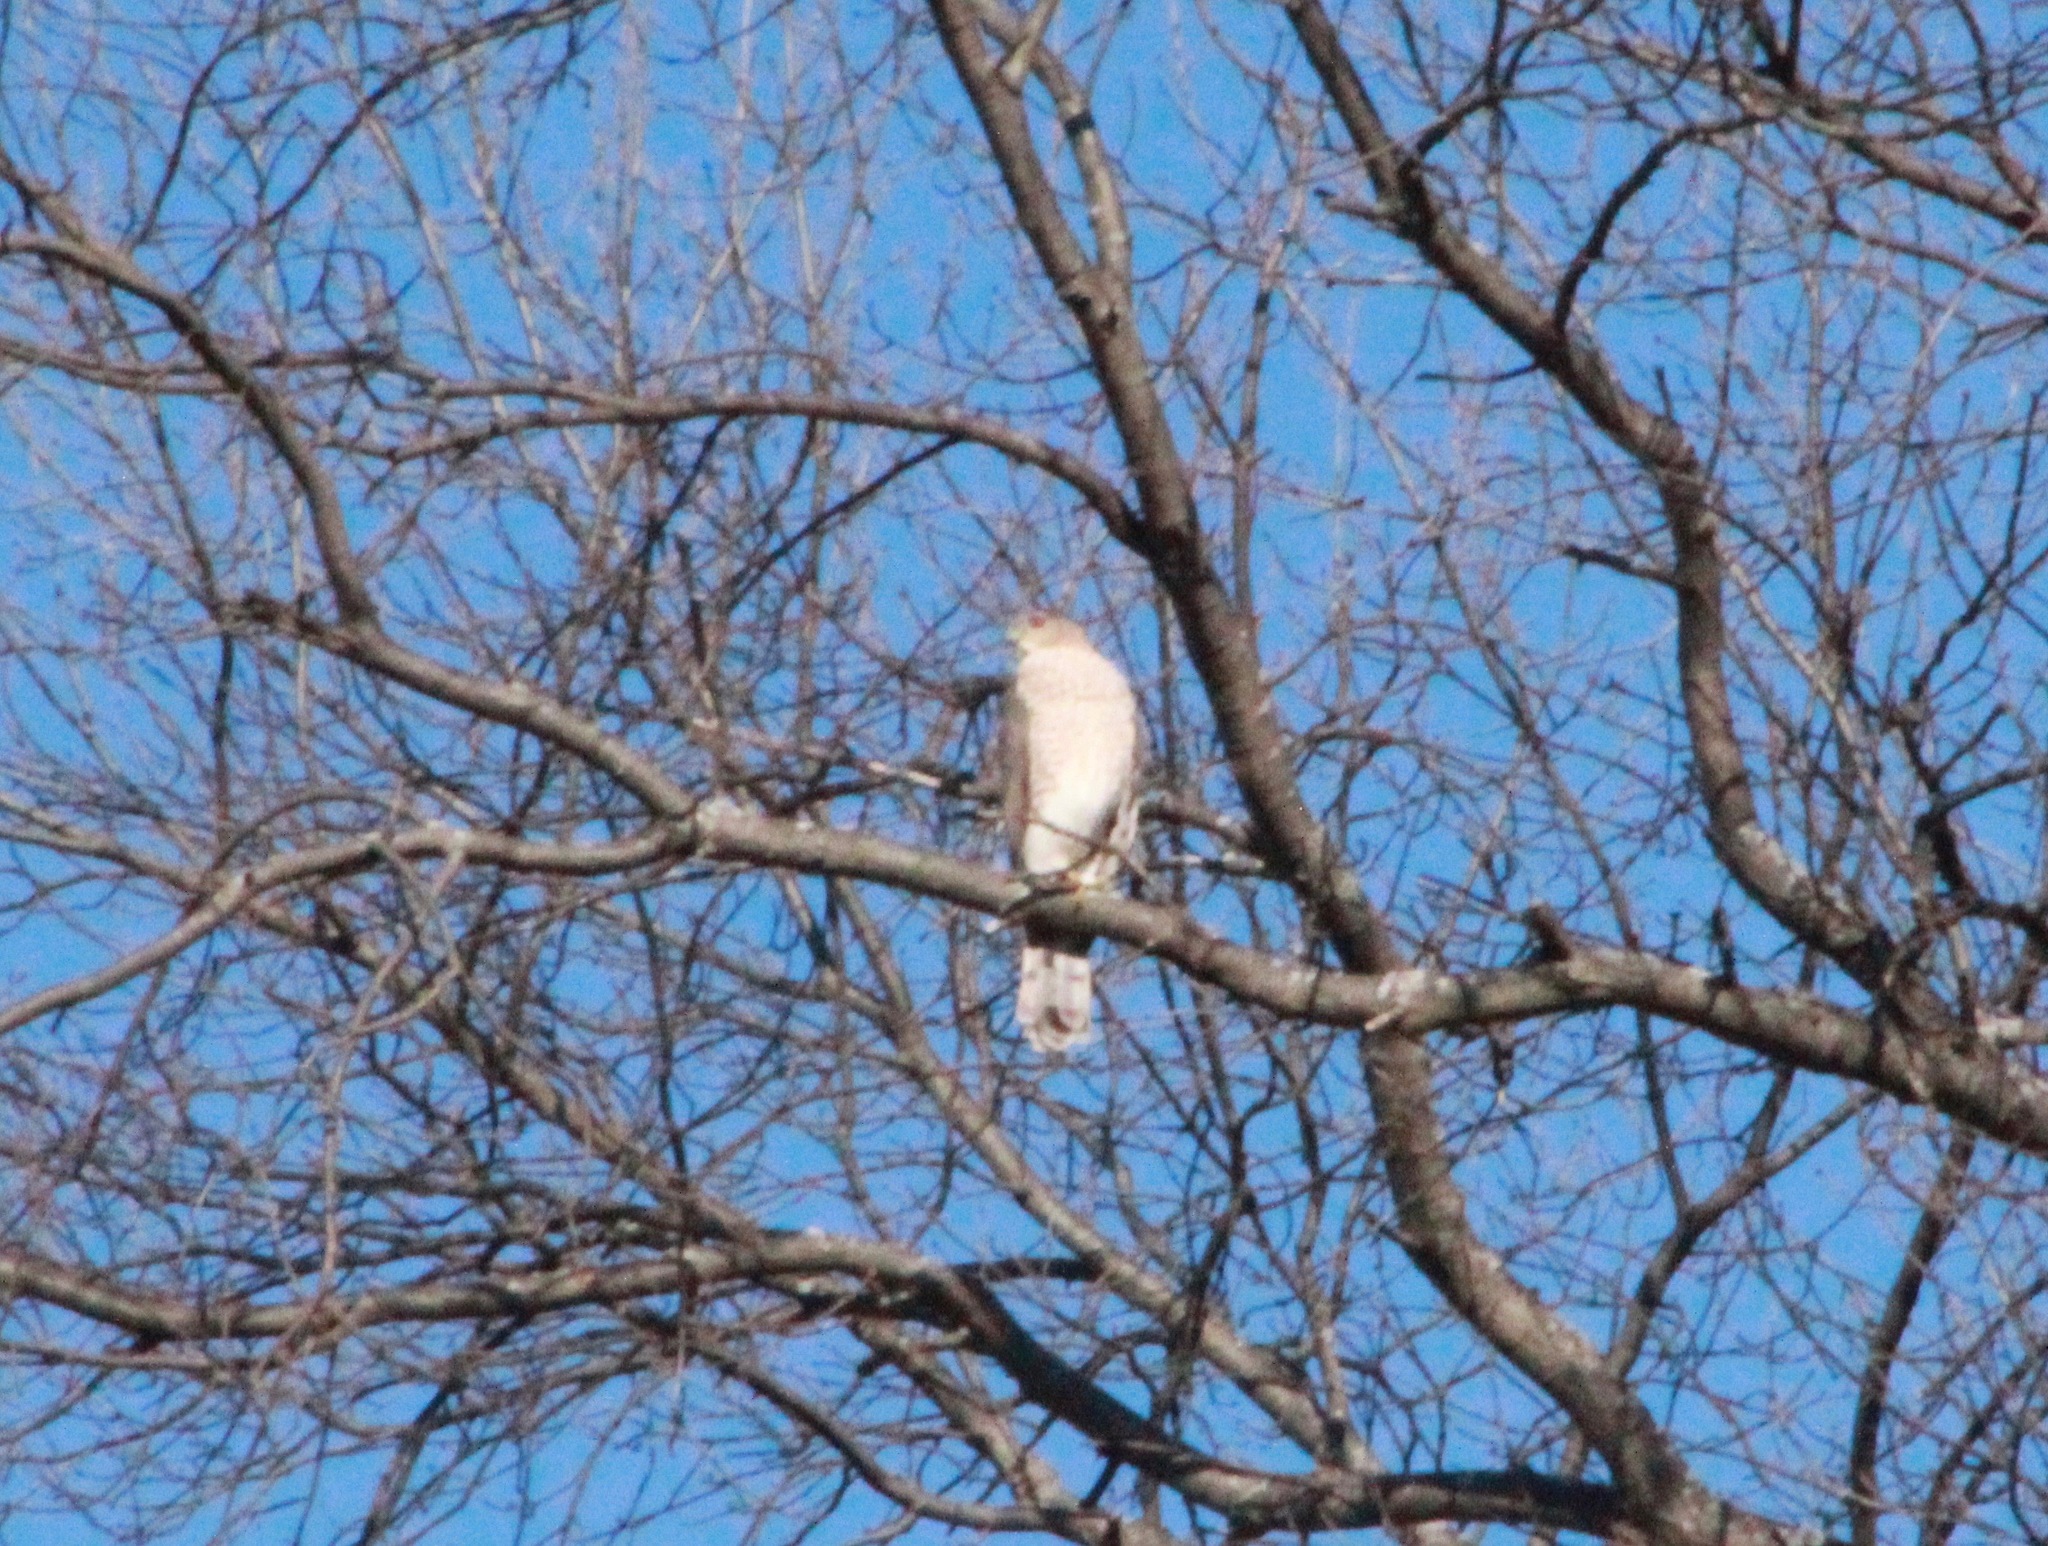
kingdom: Animalia
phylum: Chordata
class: Aves
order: Accipitriformes
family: Accipitridae
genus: Accipiter
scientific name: Accipiter cooperii
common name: Cooper's hawk
